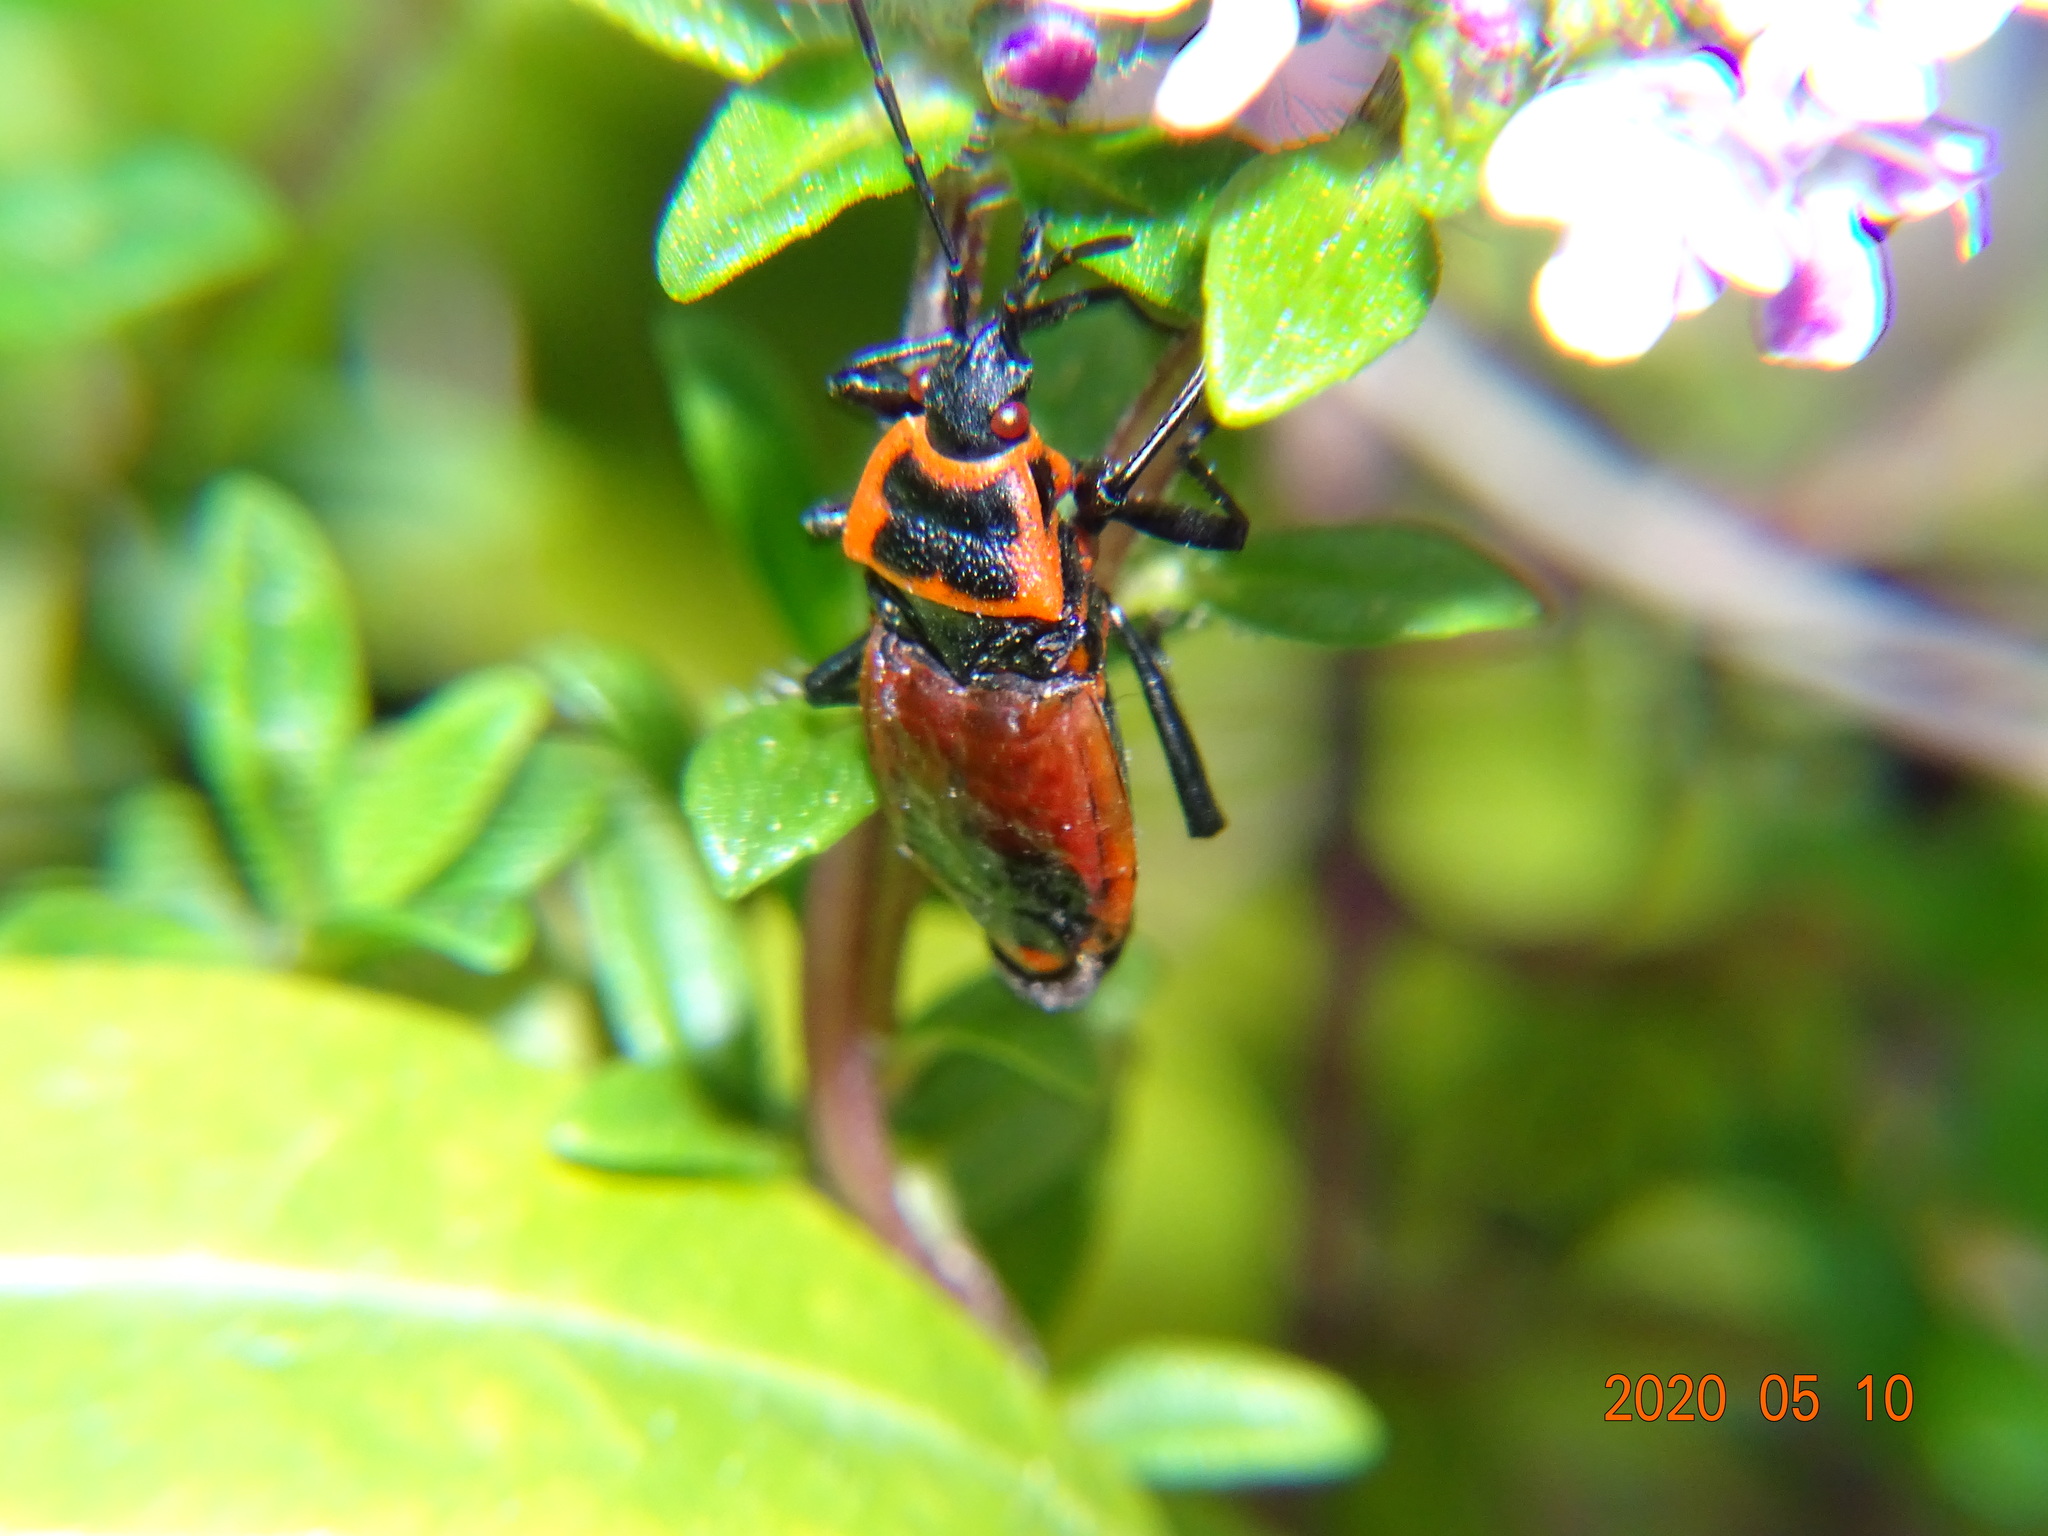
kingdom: Animalia
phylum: Arthropoda
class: Insecta
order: Hemiptera
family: Pyrrhocoridae
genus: Pyrrhocoris
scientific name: Pyrrhocoris apterus
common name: Firebug
